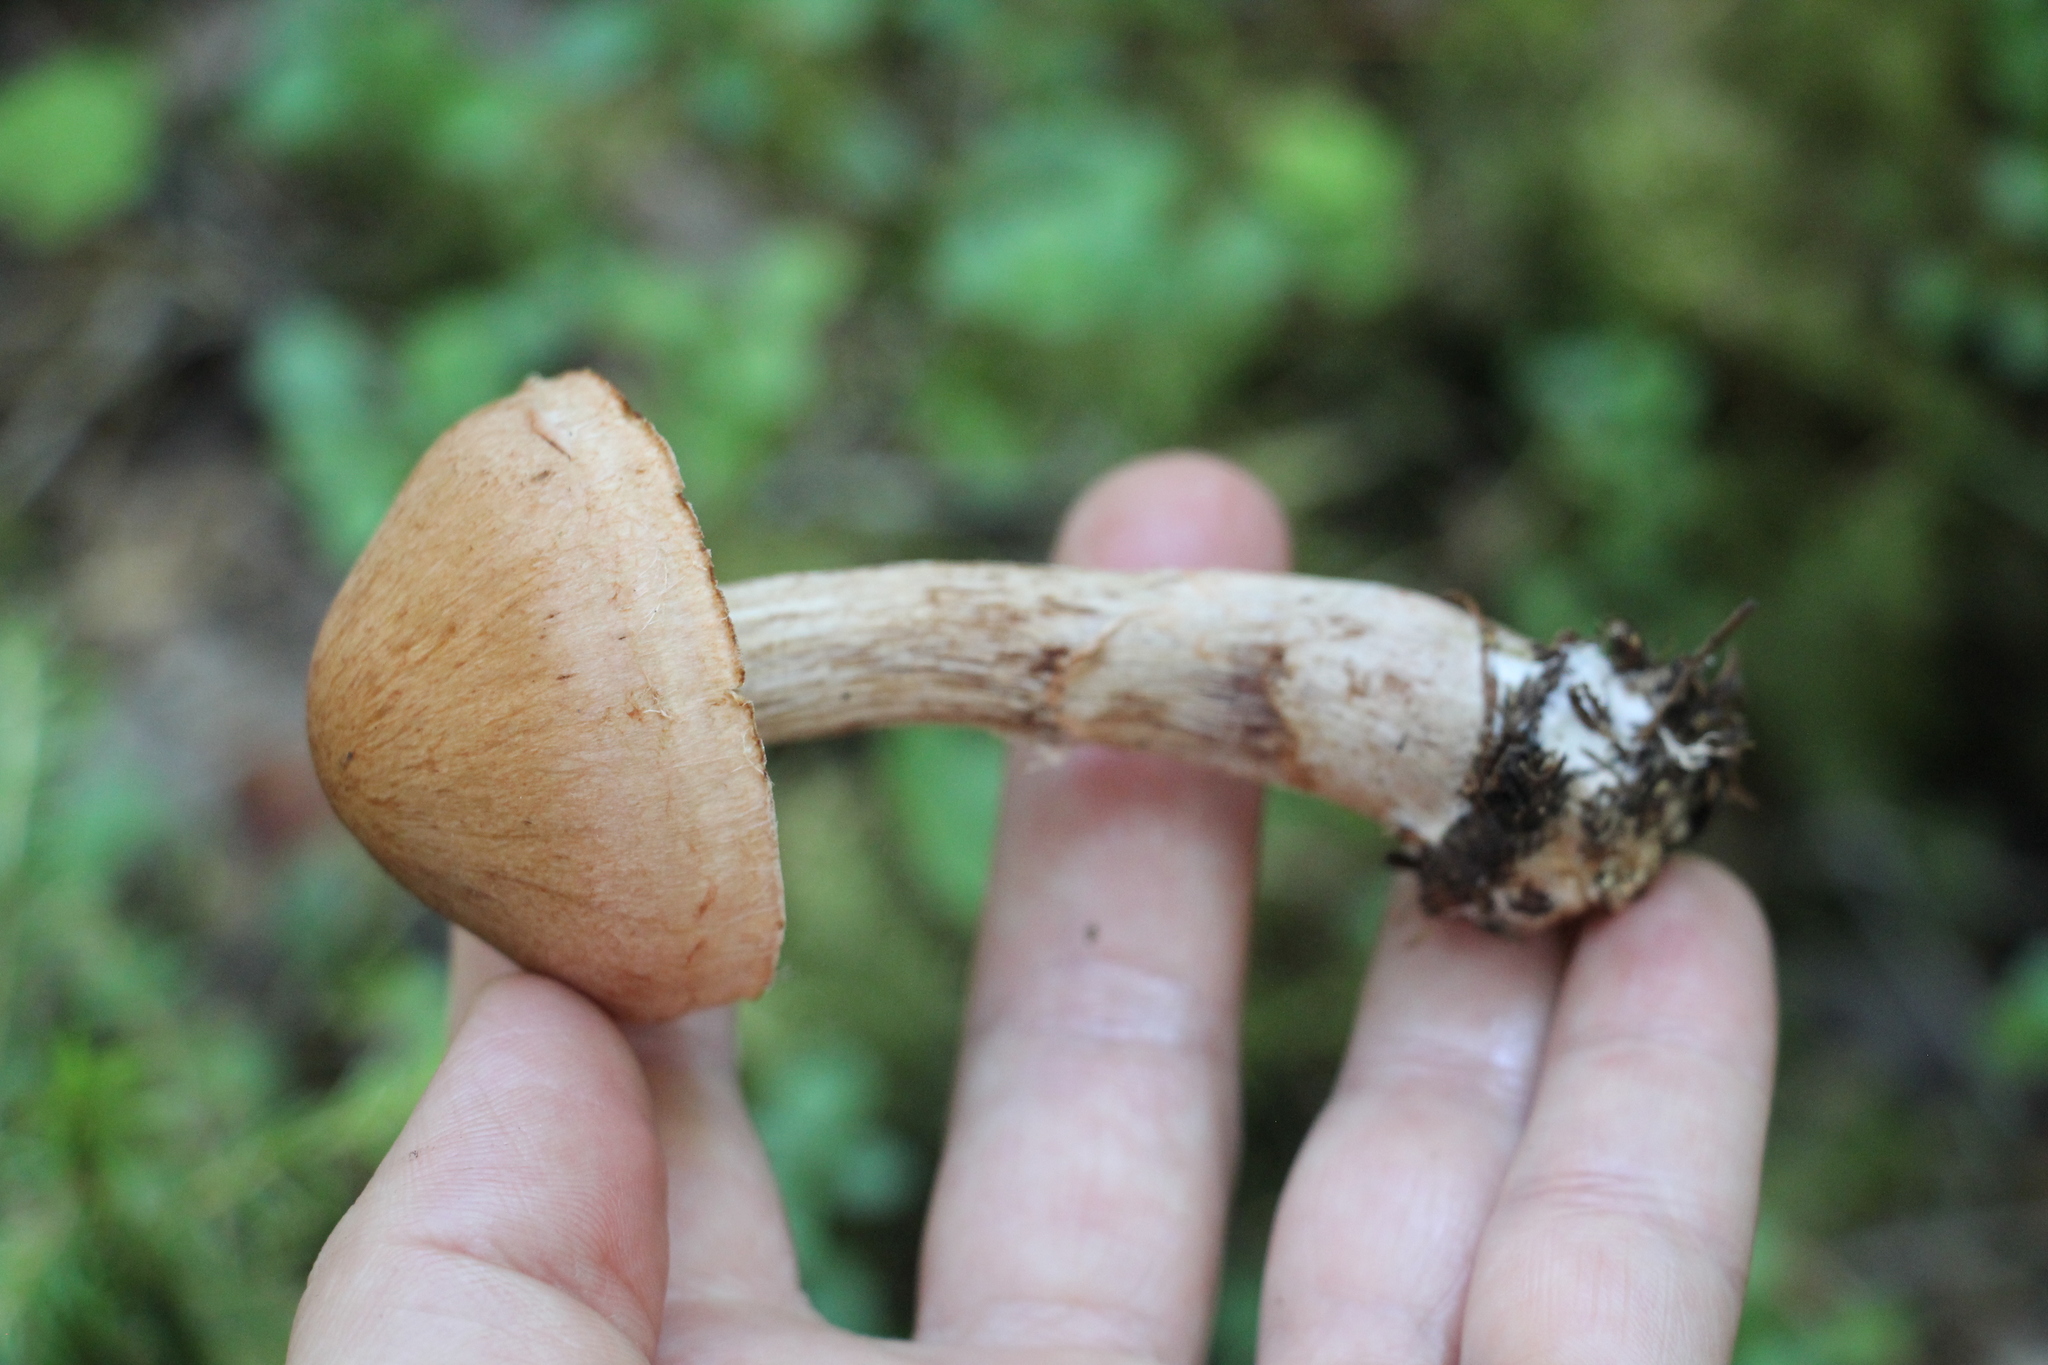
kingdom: Fungi
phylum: Basidiomycota
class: Agaricomycetes
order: Agaricales
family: Cortinariaceae
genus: Cortinarius
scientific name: Cortinarius armillatus
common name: Red banded webcap
